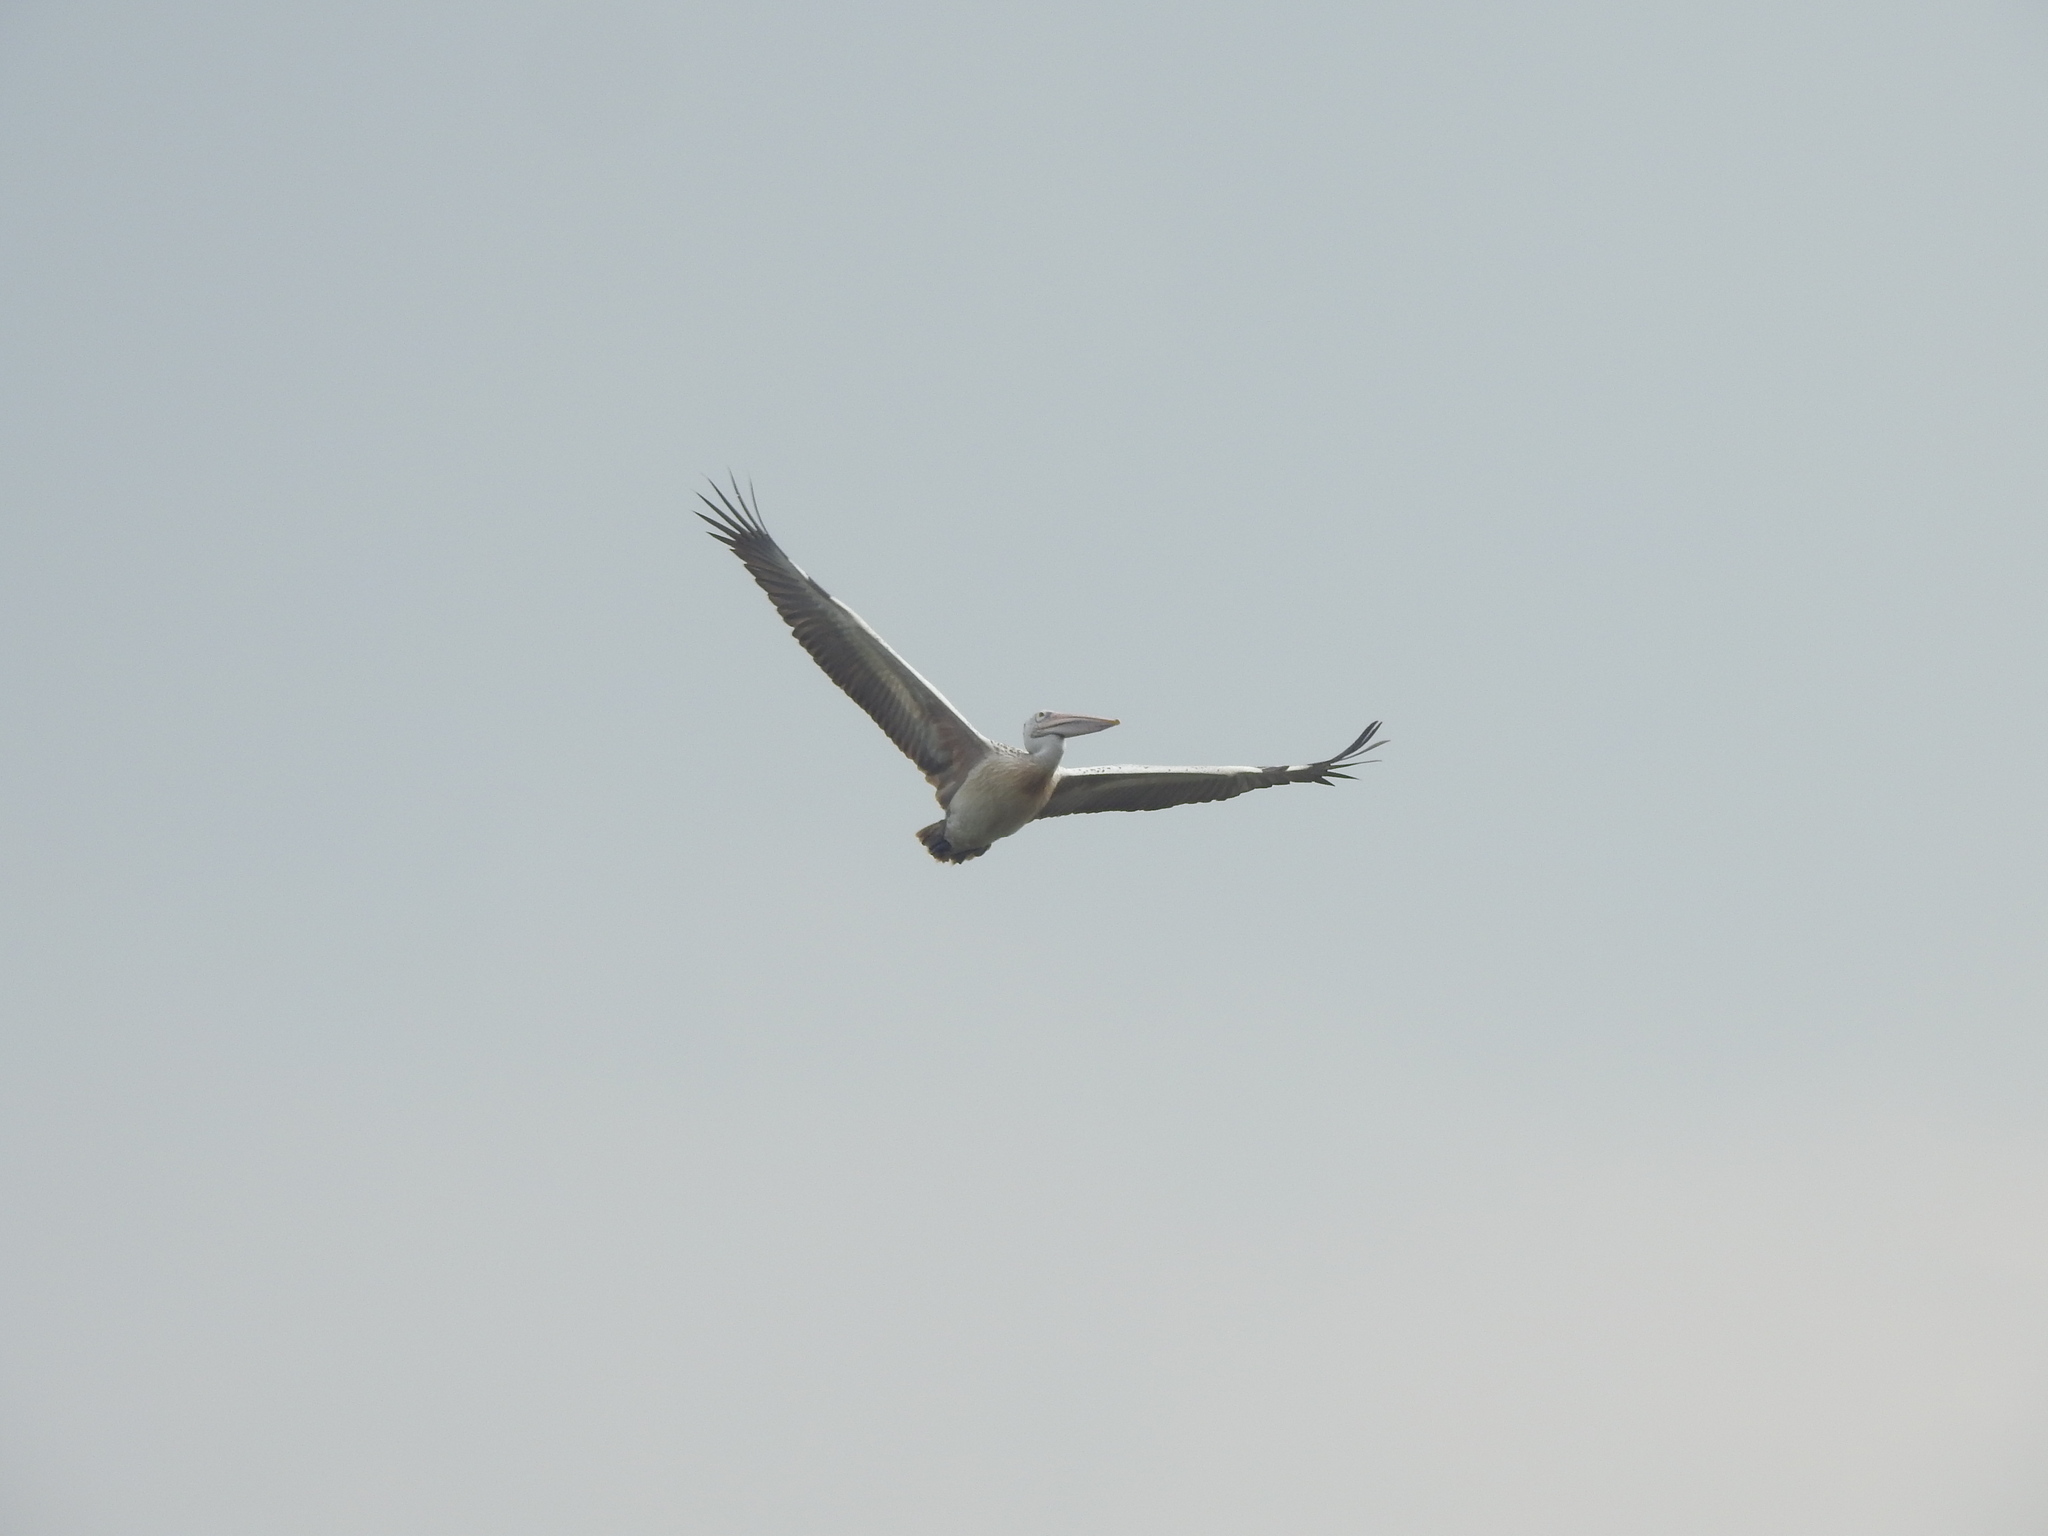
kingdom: Animalia
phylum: Chordata
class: Aves
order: Pelecaniformes
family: Pelecanidae
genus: Pelecanus
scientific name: Pelecanus philippensis
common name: Spot-billed pelican
